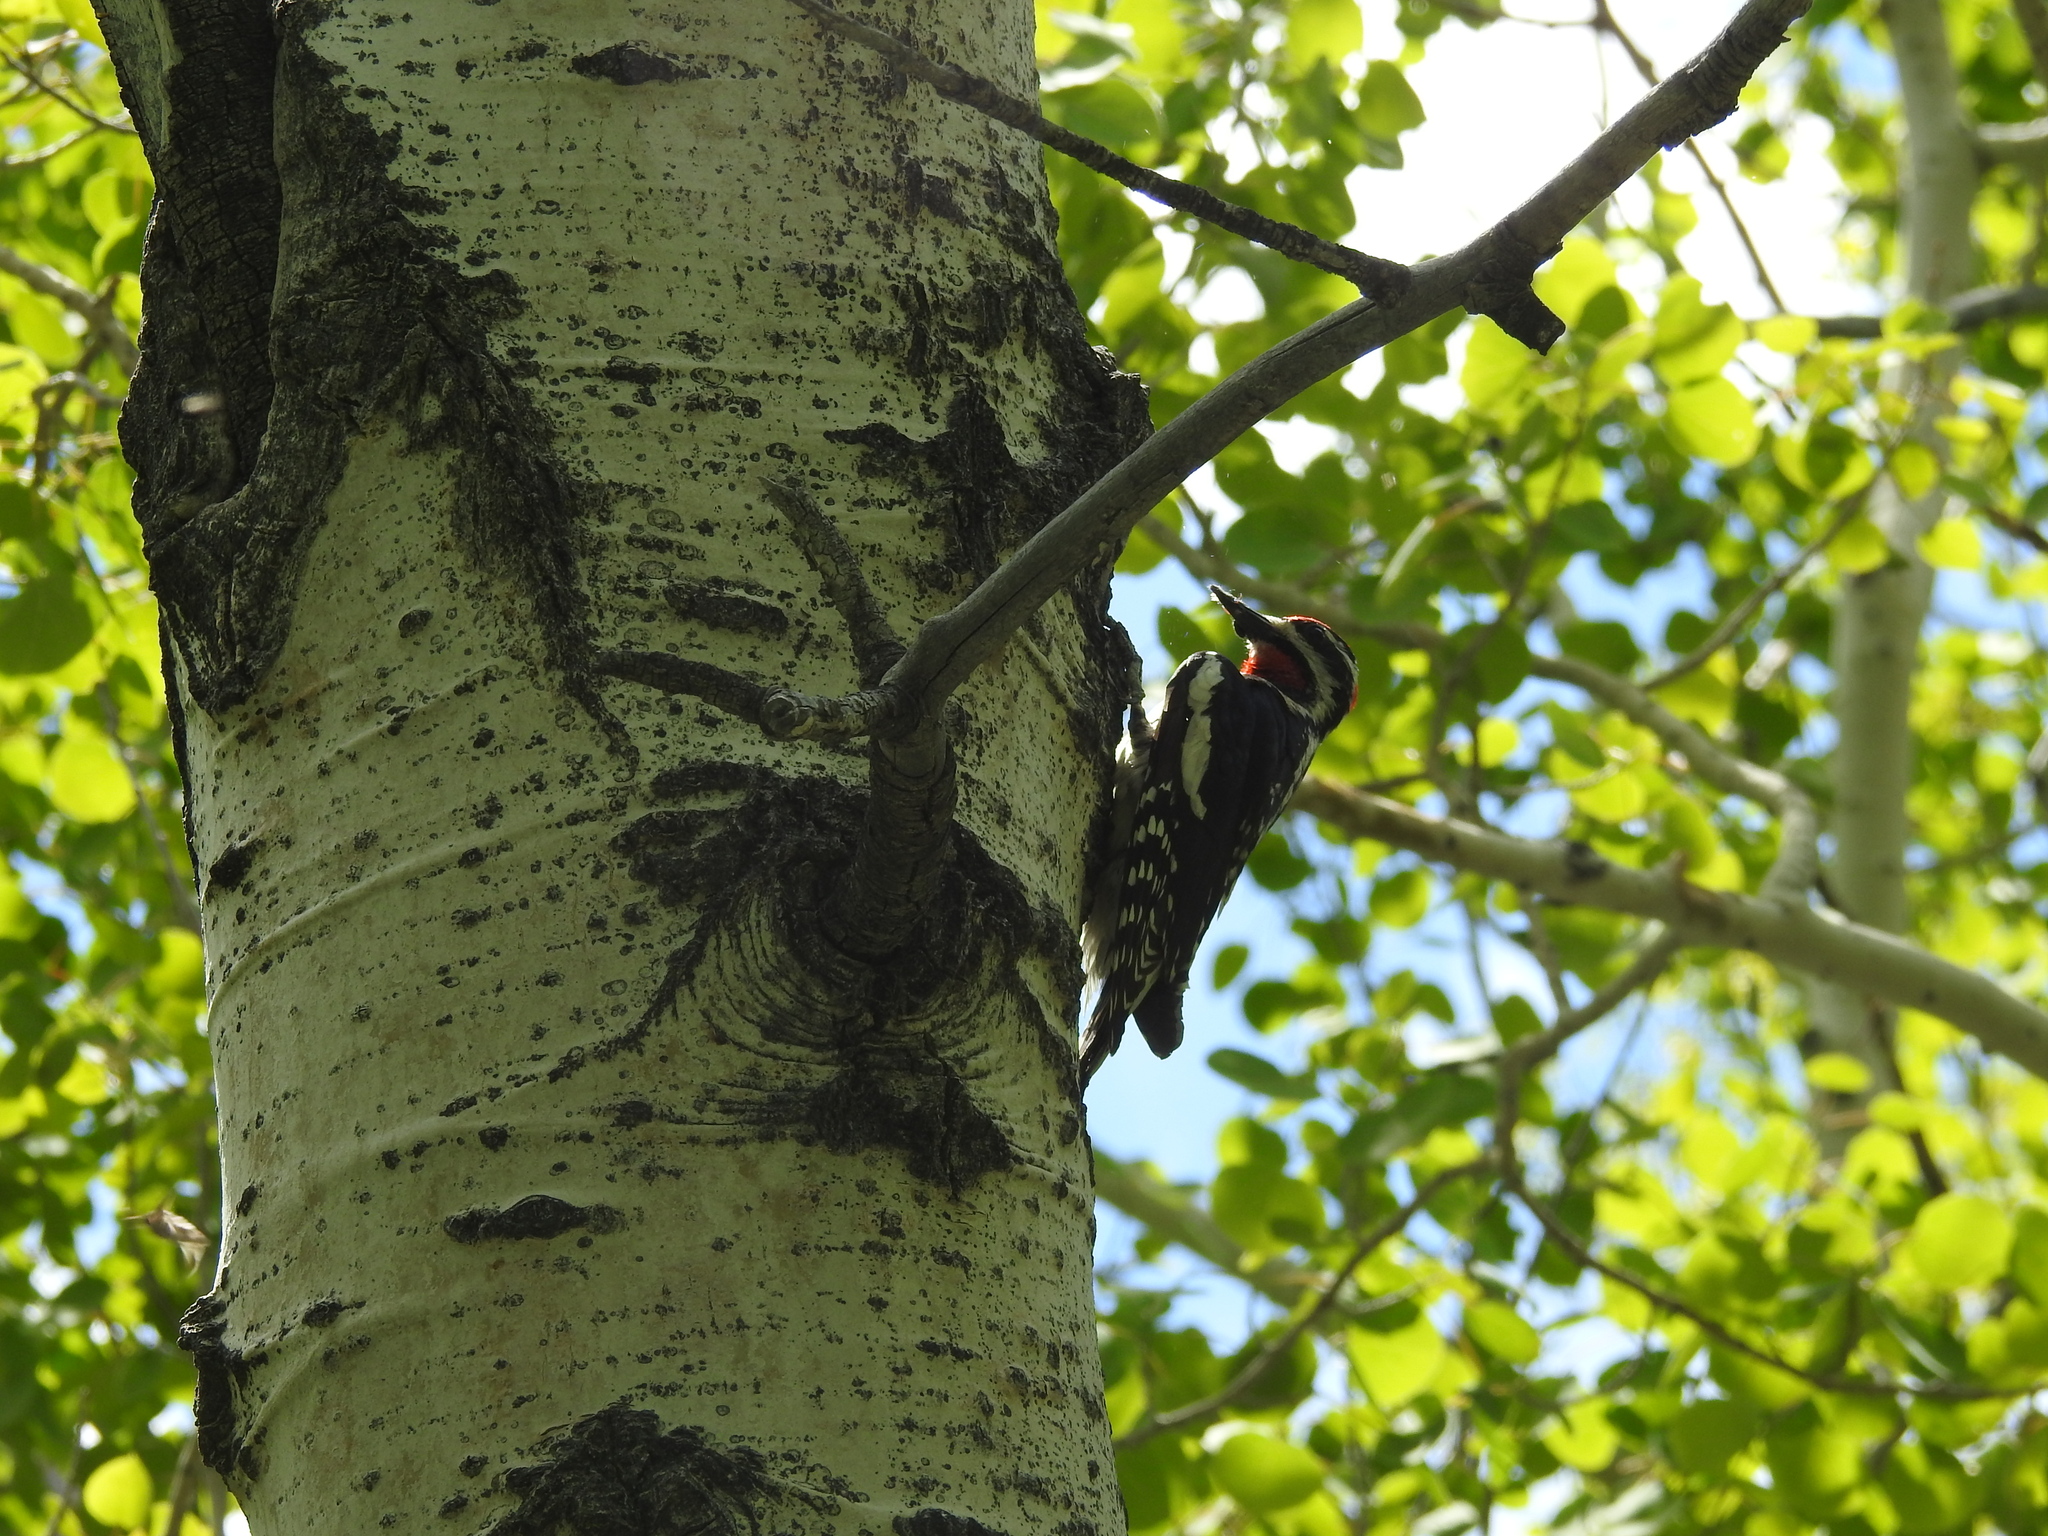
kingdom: Animalia
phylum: Chordata
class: Aves
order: Piciformes
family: Picidae
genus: Sphyrapicus
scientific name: Sphyrapicus nuchalis
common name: Red-naped sapsucker
